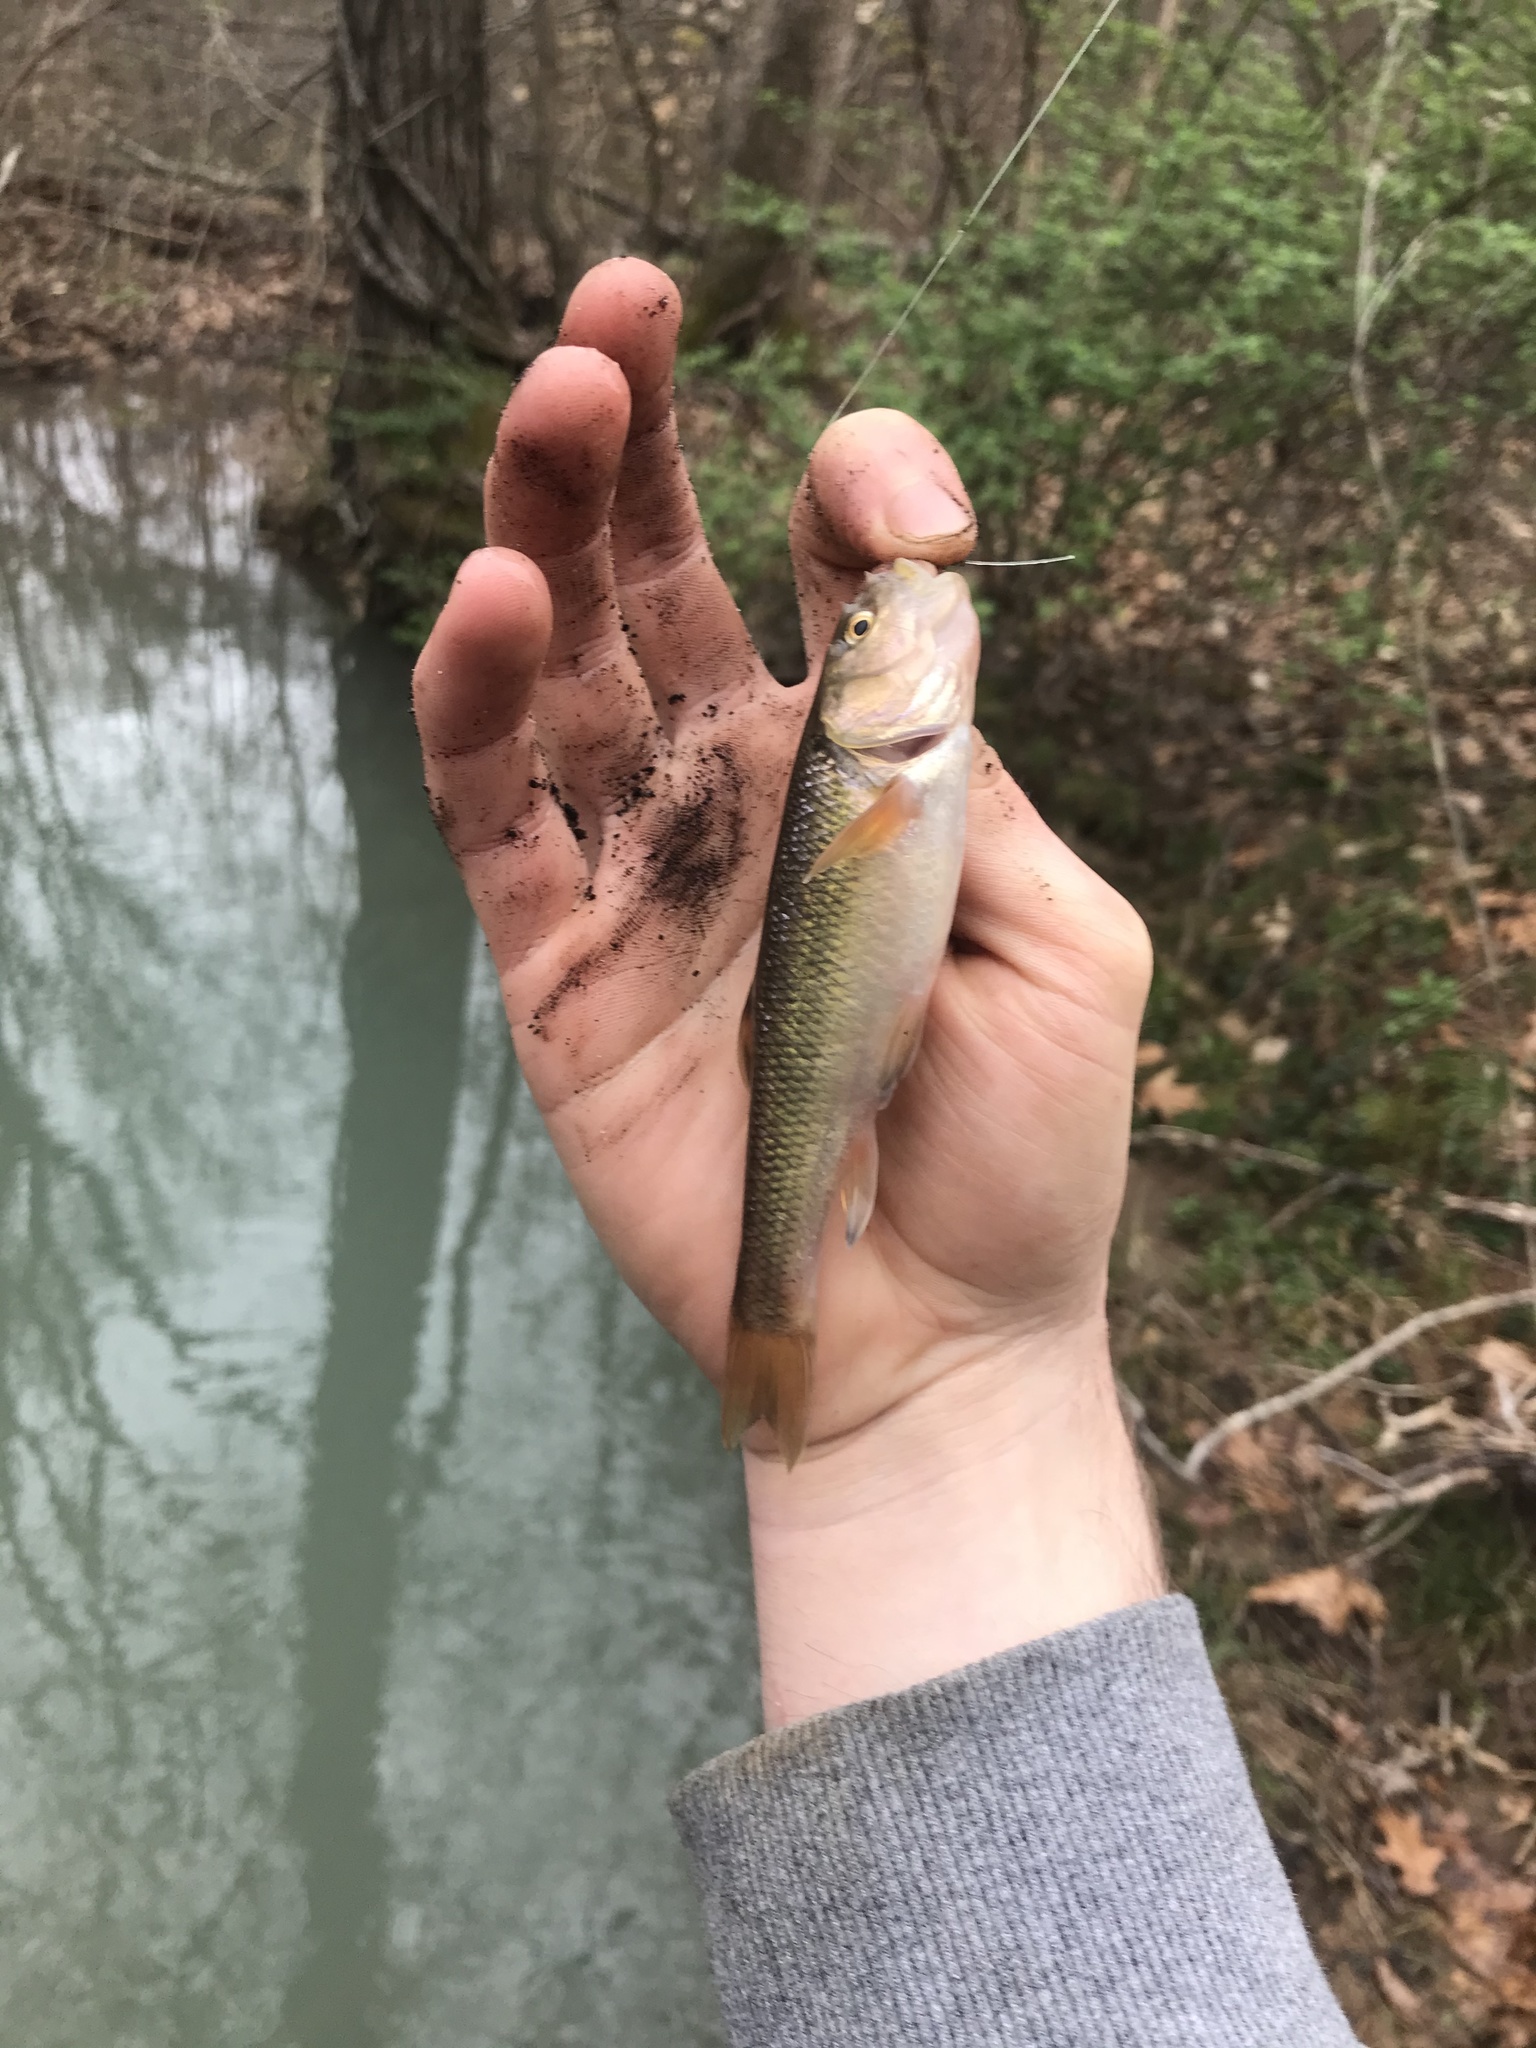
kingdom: Animalia
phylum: Chordata
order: Cypriniformes
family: Cyprinidae
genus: Semotilus
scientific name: Semotilus atromaculatus
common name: Creek chub
